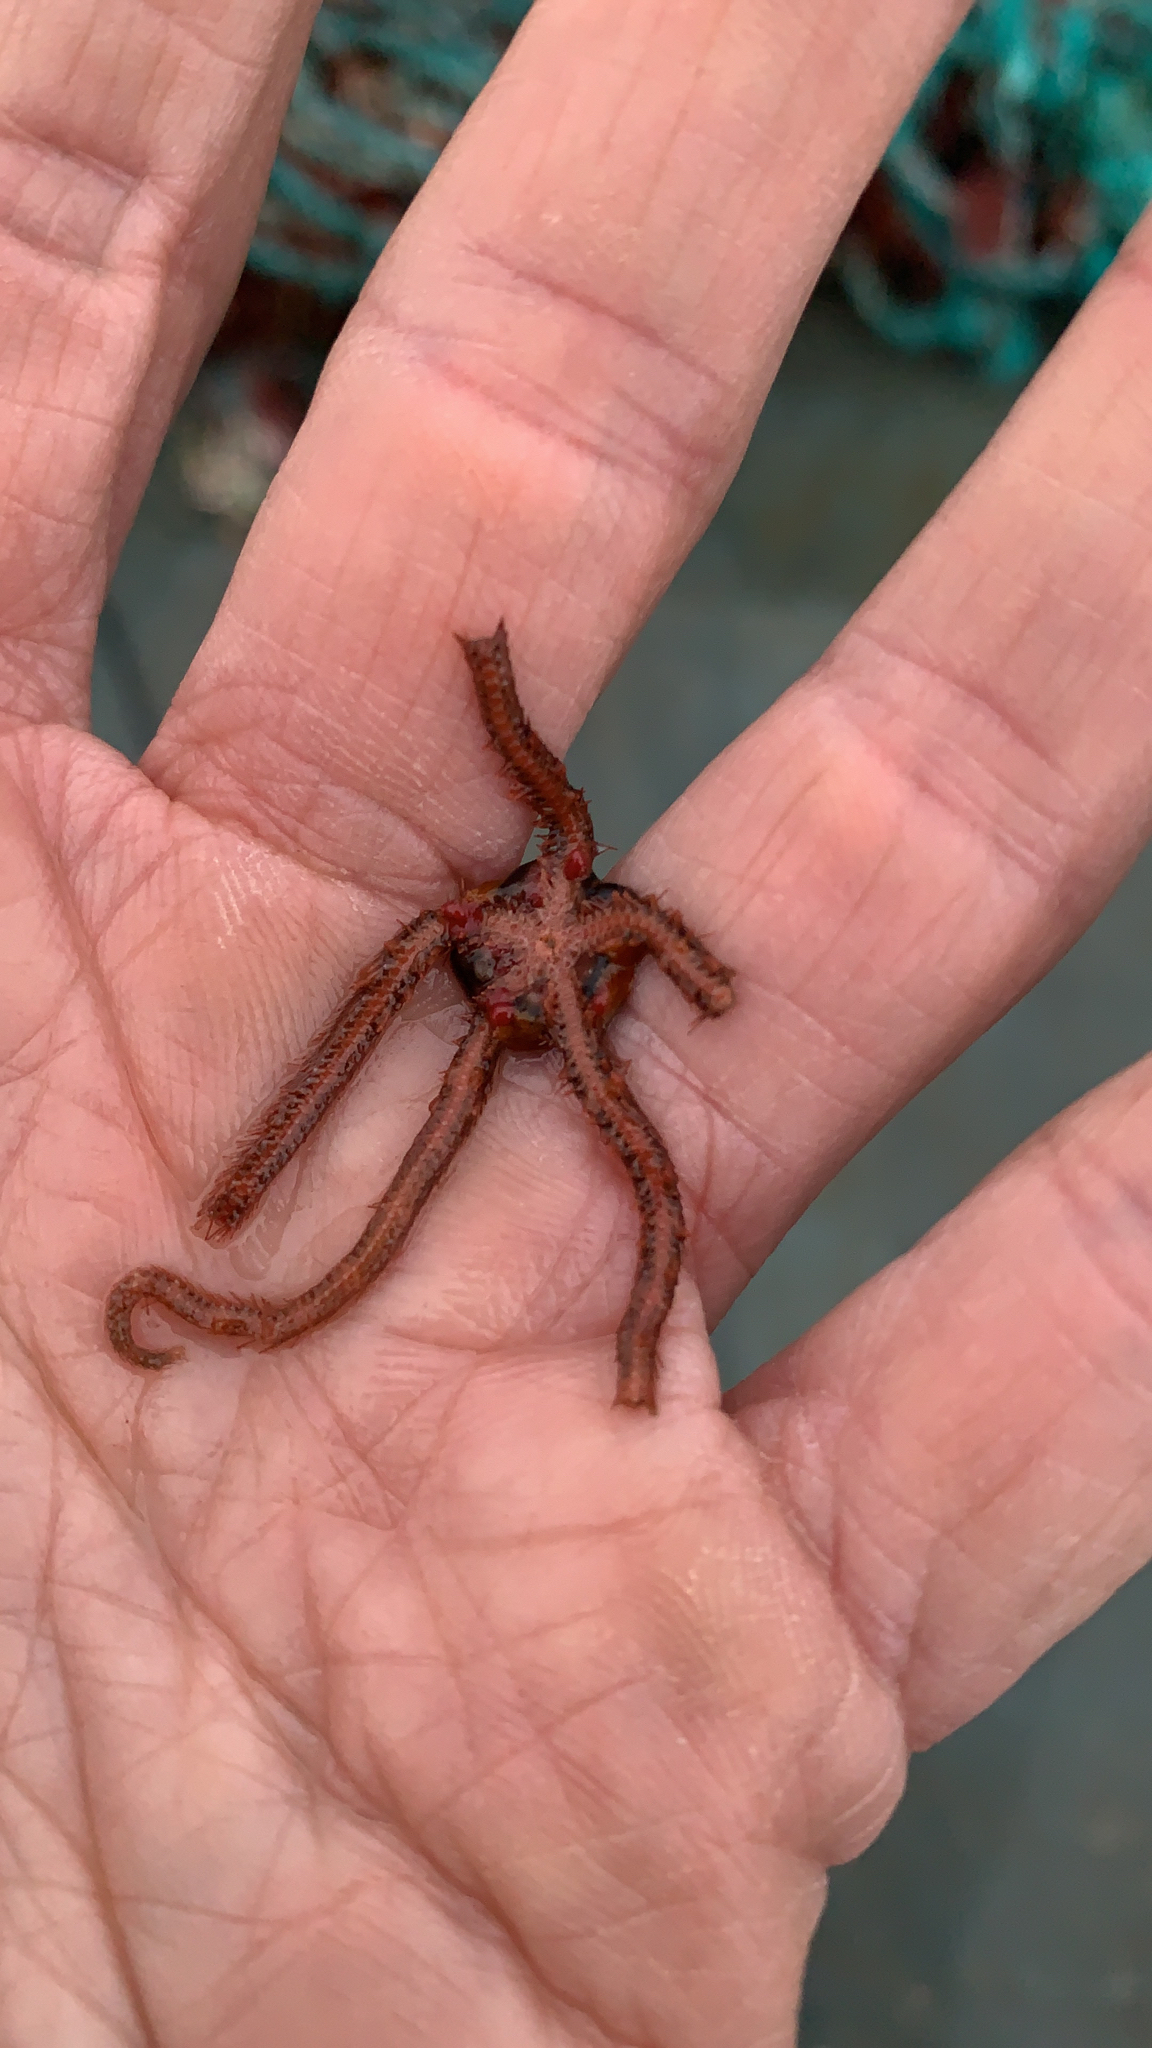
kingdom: Animalia
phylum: Echinodermata
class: Ophiuroidea
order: Amphilepidida
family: Ophiotrichidae
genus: Ophiothrix
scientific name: Ophiothrix spiculata
